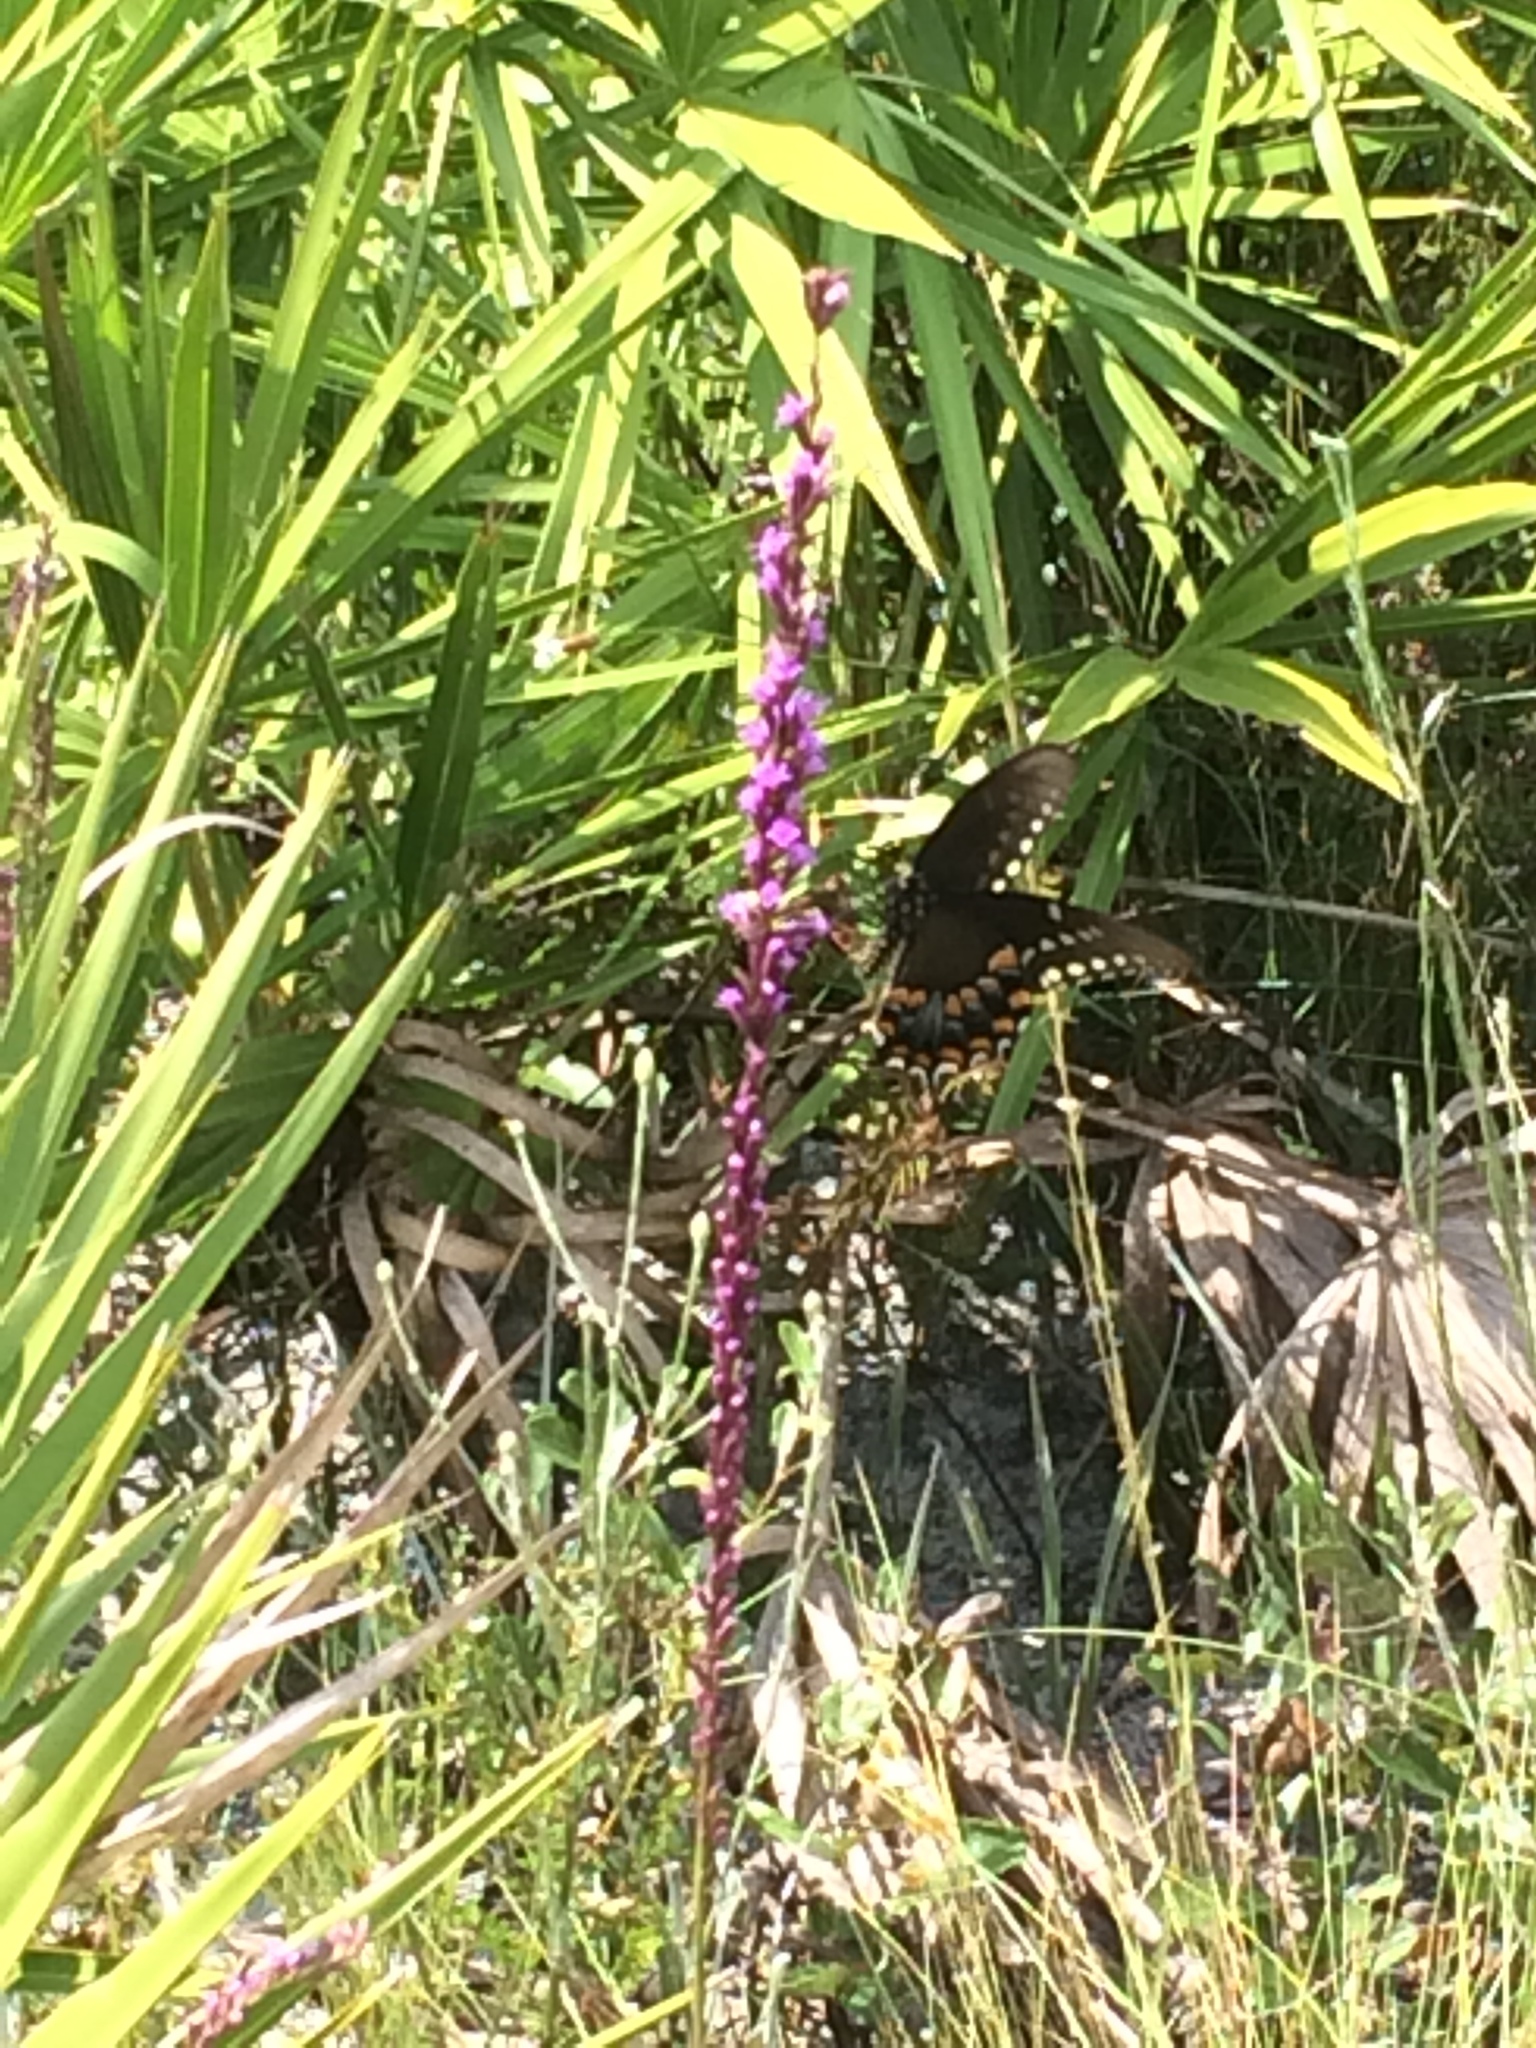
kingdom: Animalia
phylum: Arthropoda
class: Insecta
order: Lepidoptera
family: Papilionidae
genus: Papilio
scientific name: Papilio troilus
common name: Spicebush swallowtail
